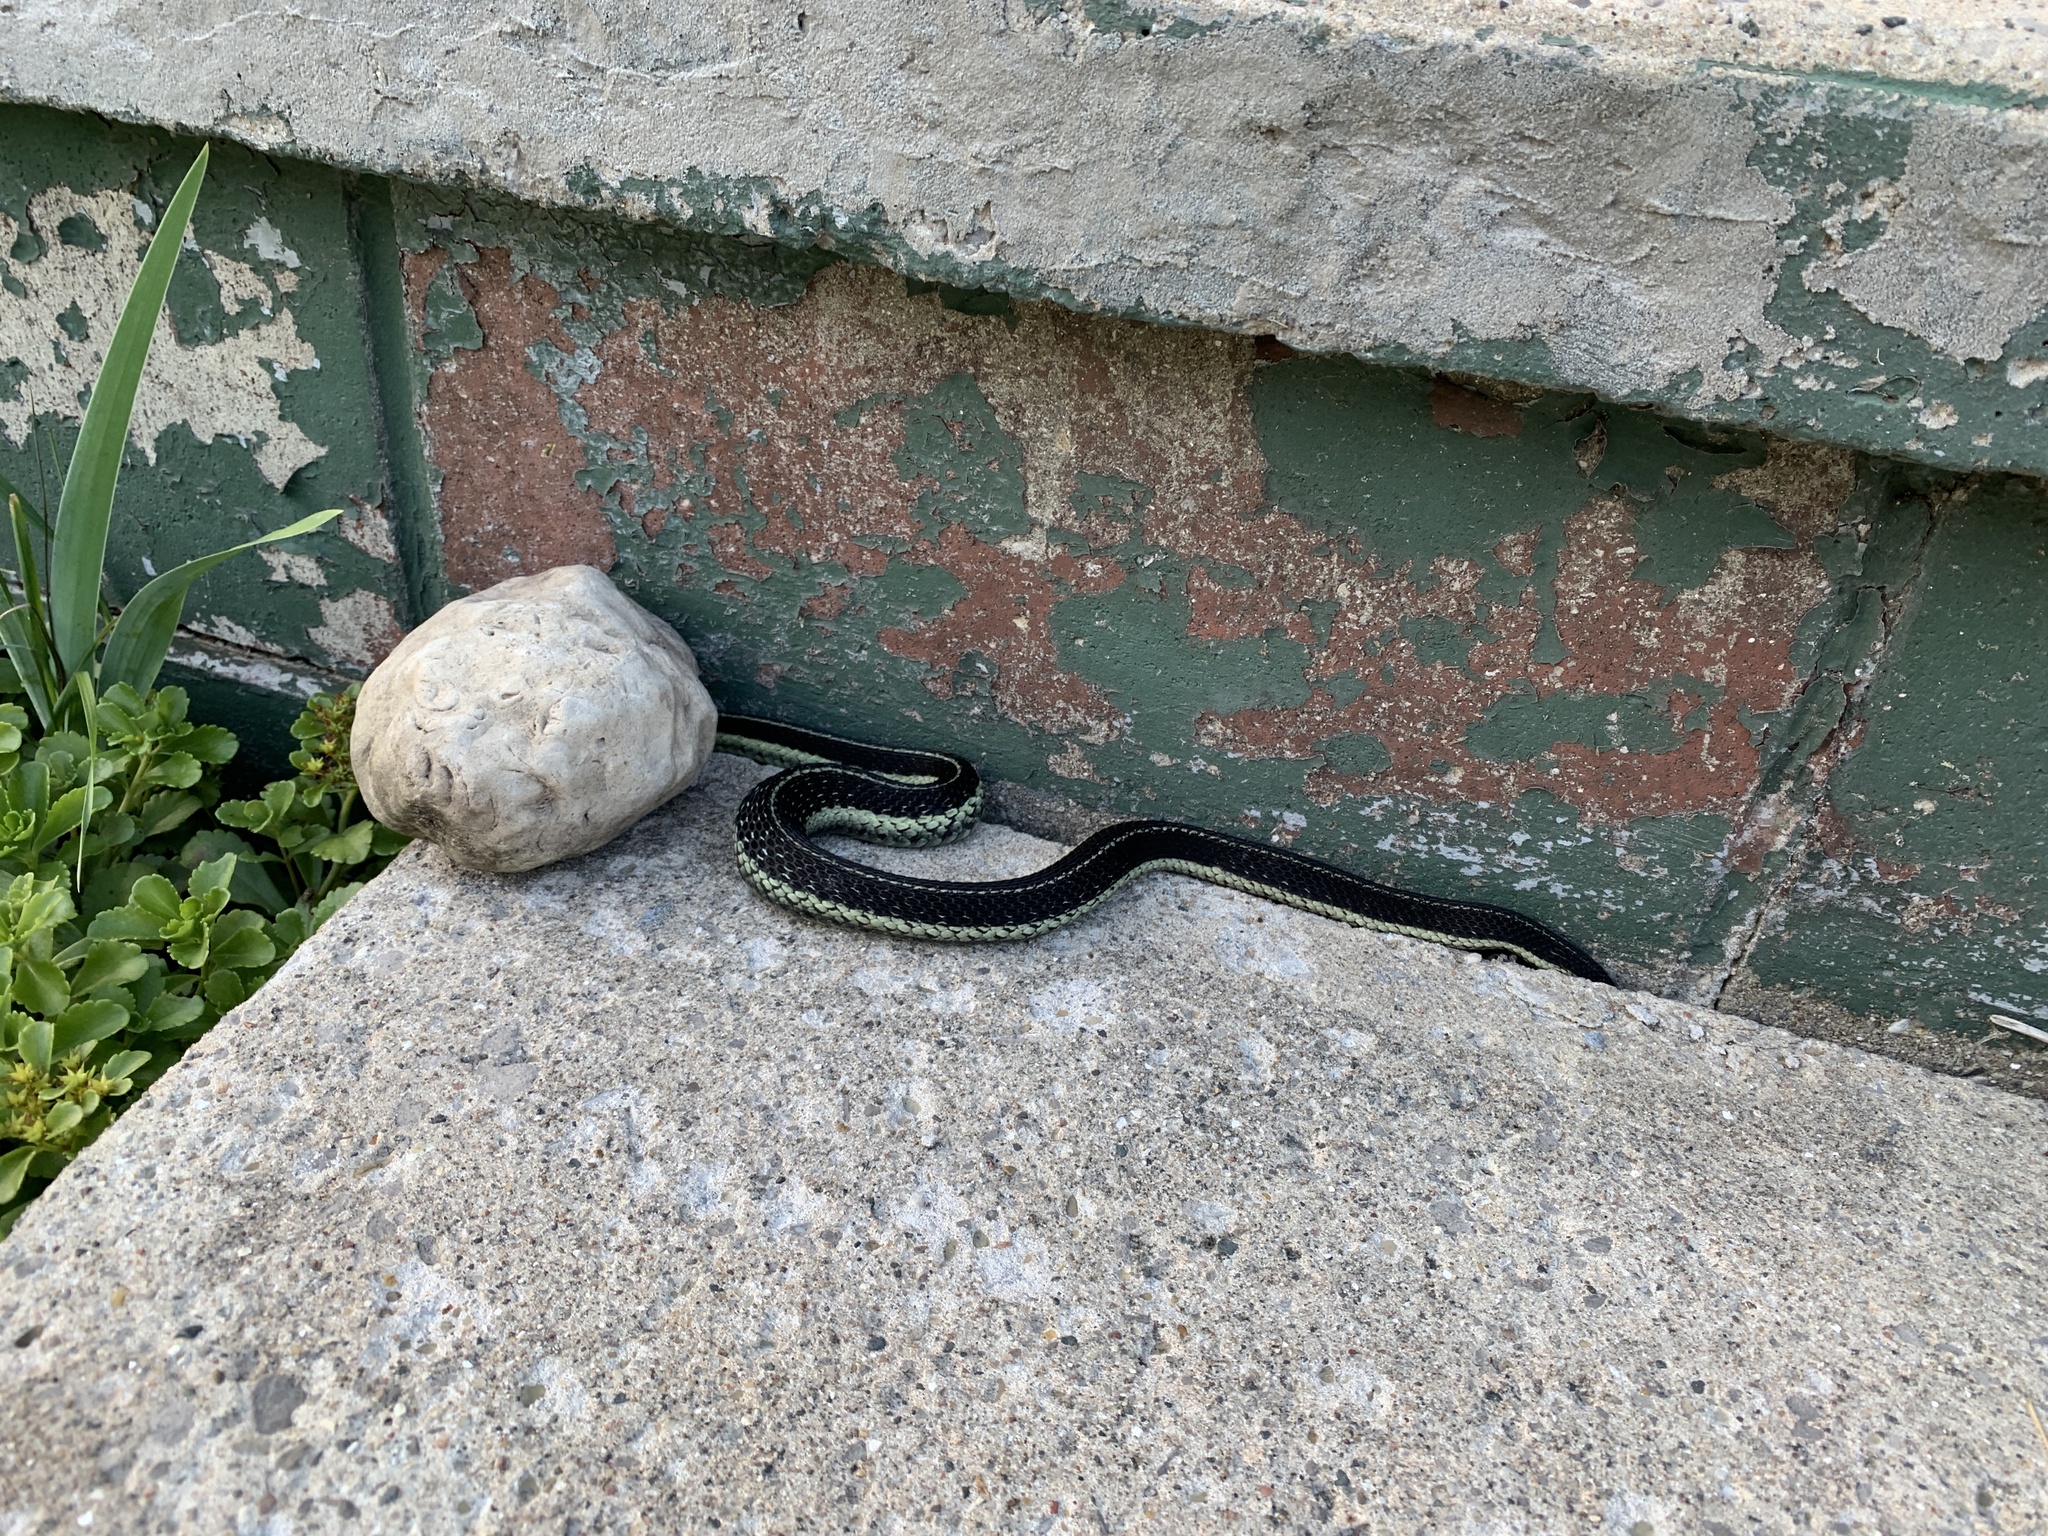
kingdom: Animalia
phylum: Chordata
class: Squamata
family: Colubridae
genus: Thamnophis
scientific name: Thamnophis sirtalis
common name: Common garter snake
